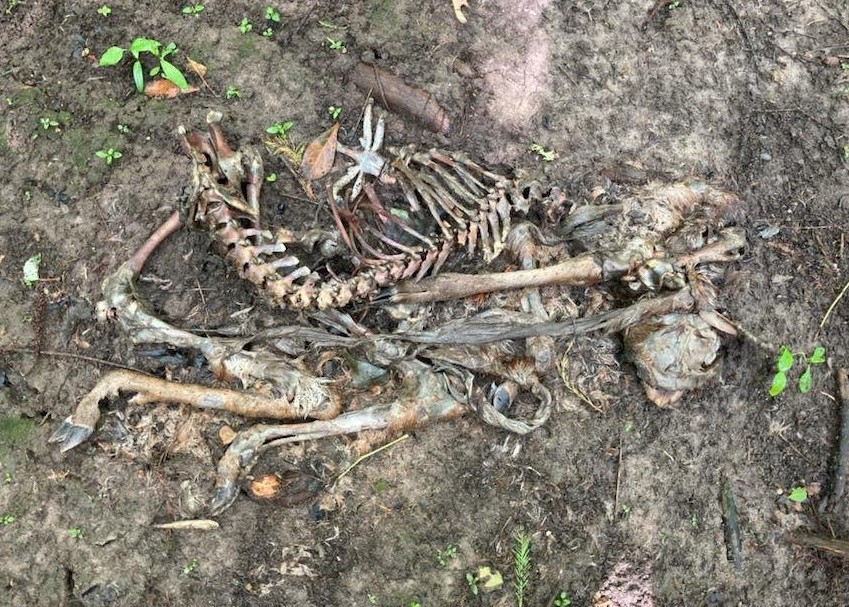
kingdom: Animalia
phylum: Chordata
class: Mammalia
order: Artiodactyla
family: Cervidae
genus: Odocoileus
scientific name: Odocoileus virginianus
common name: White-tailed deer
